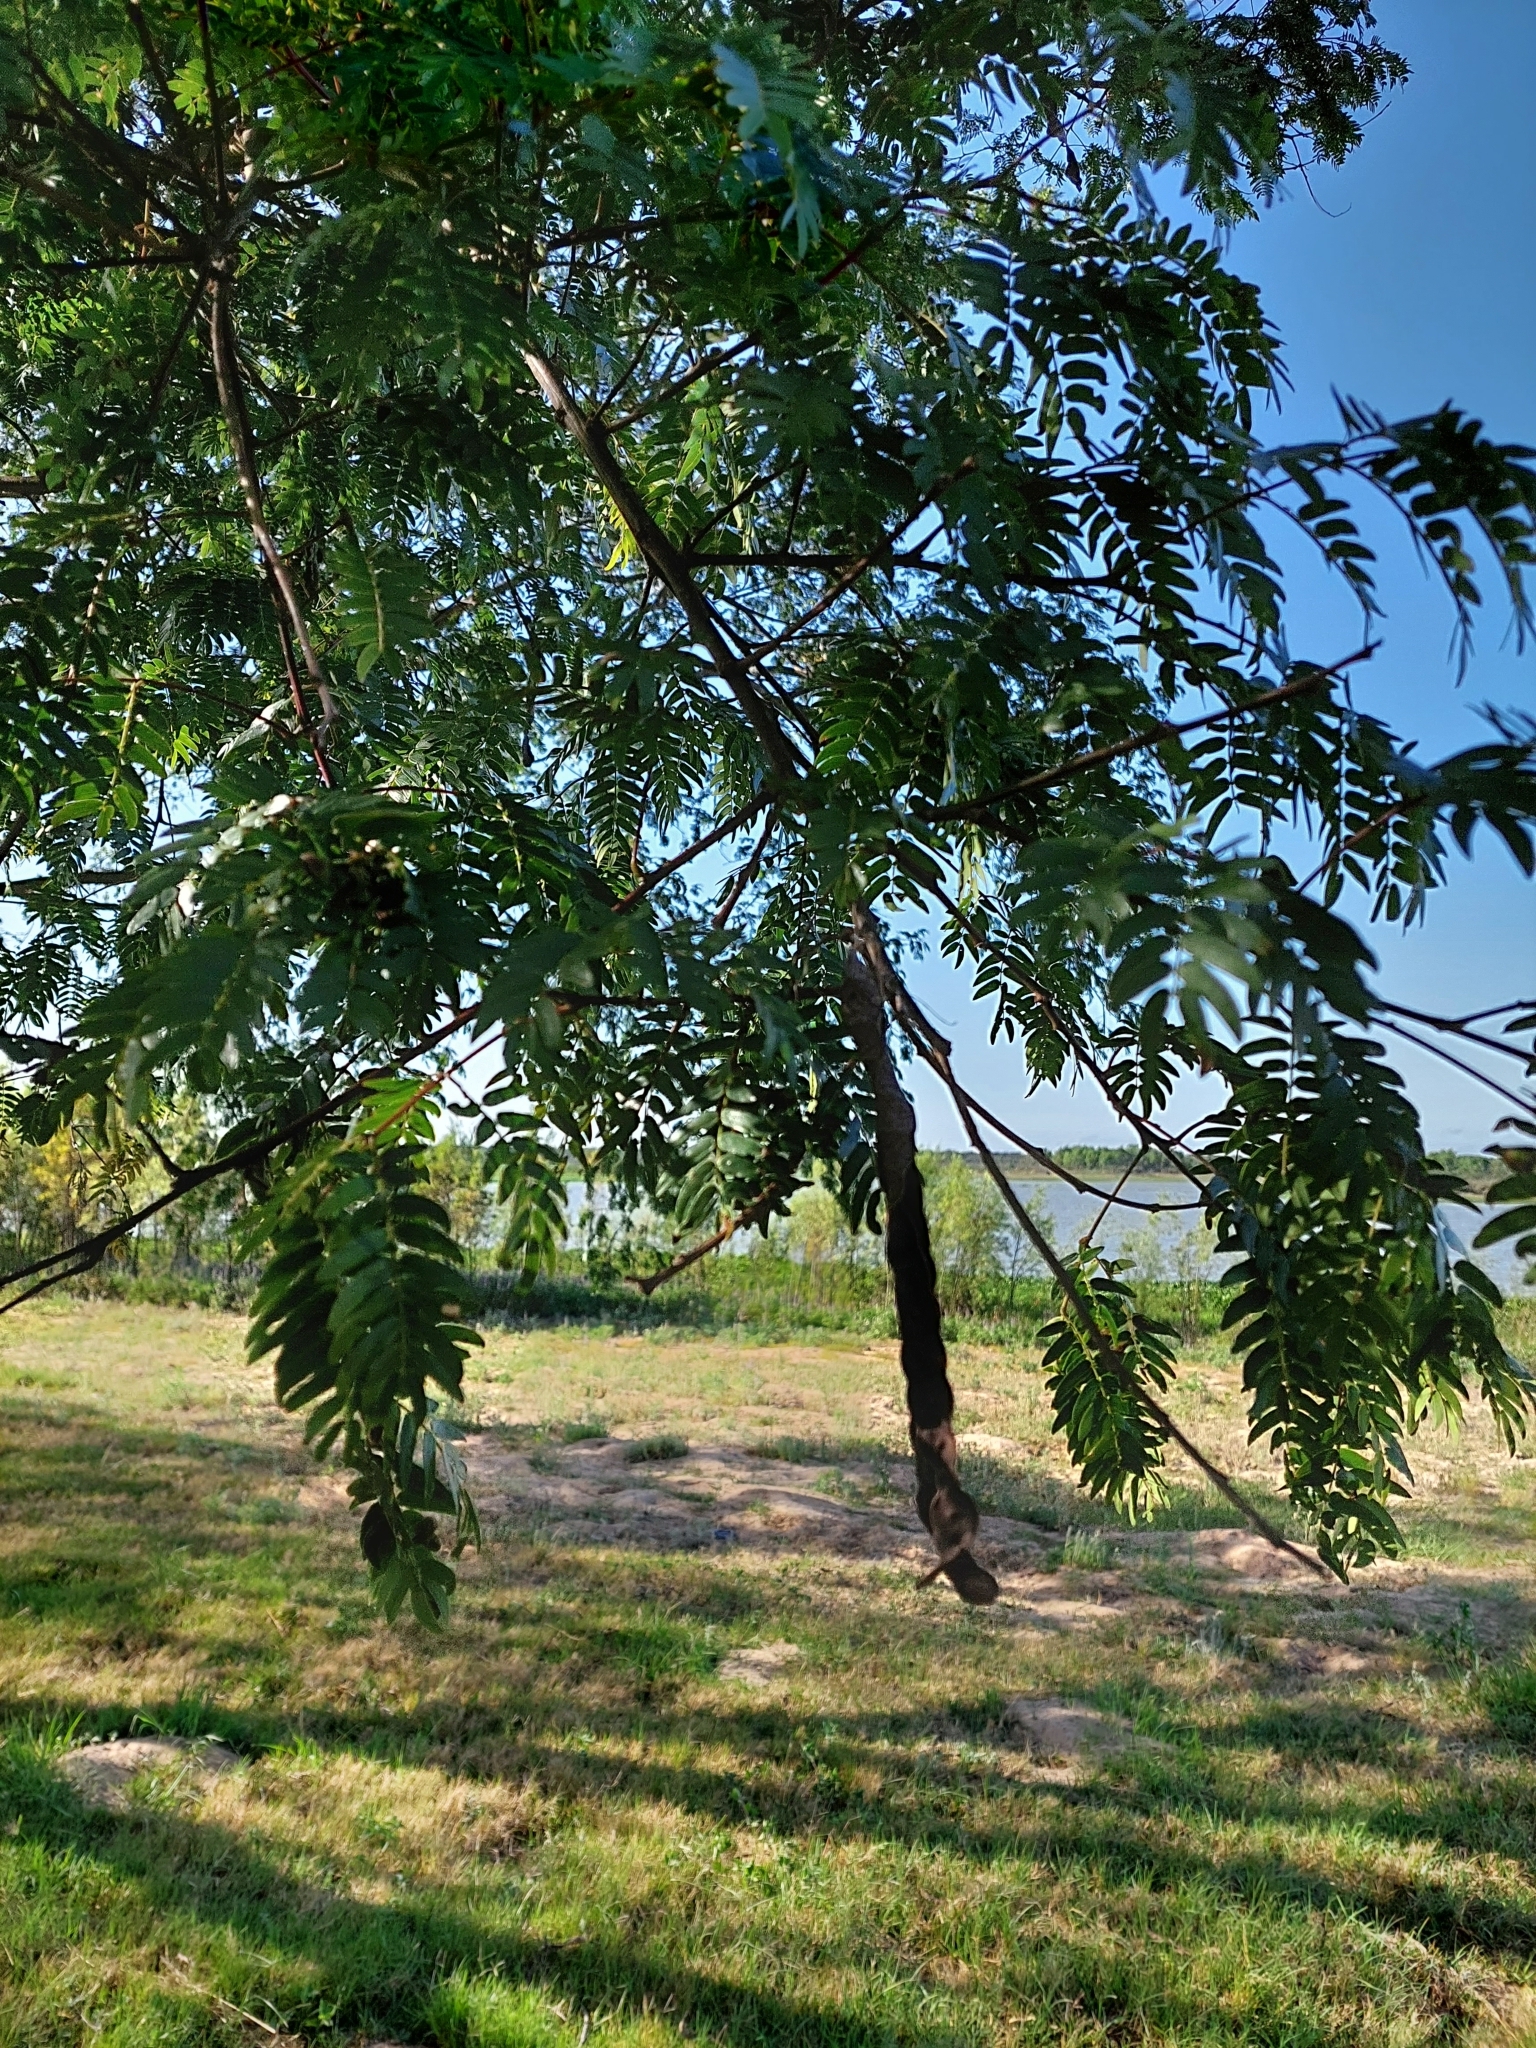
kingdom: Plantae
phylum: Tracheophyta
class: Magnoliopsida
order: Fabales
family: Fabaceae
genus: Albizia
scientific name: Albizia inundata
